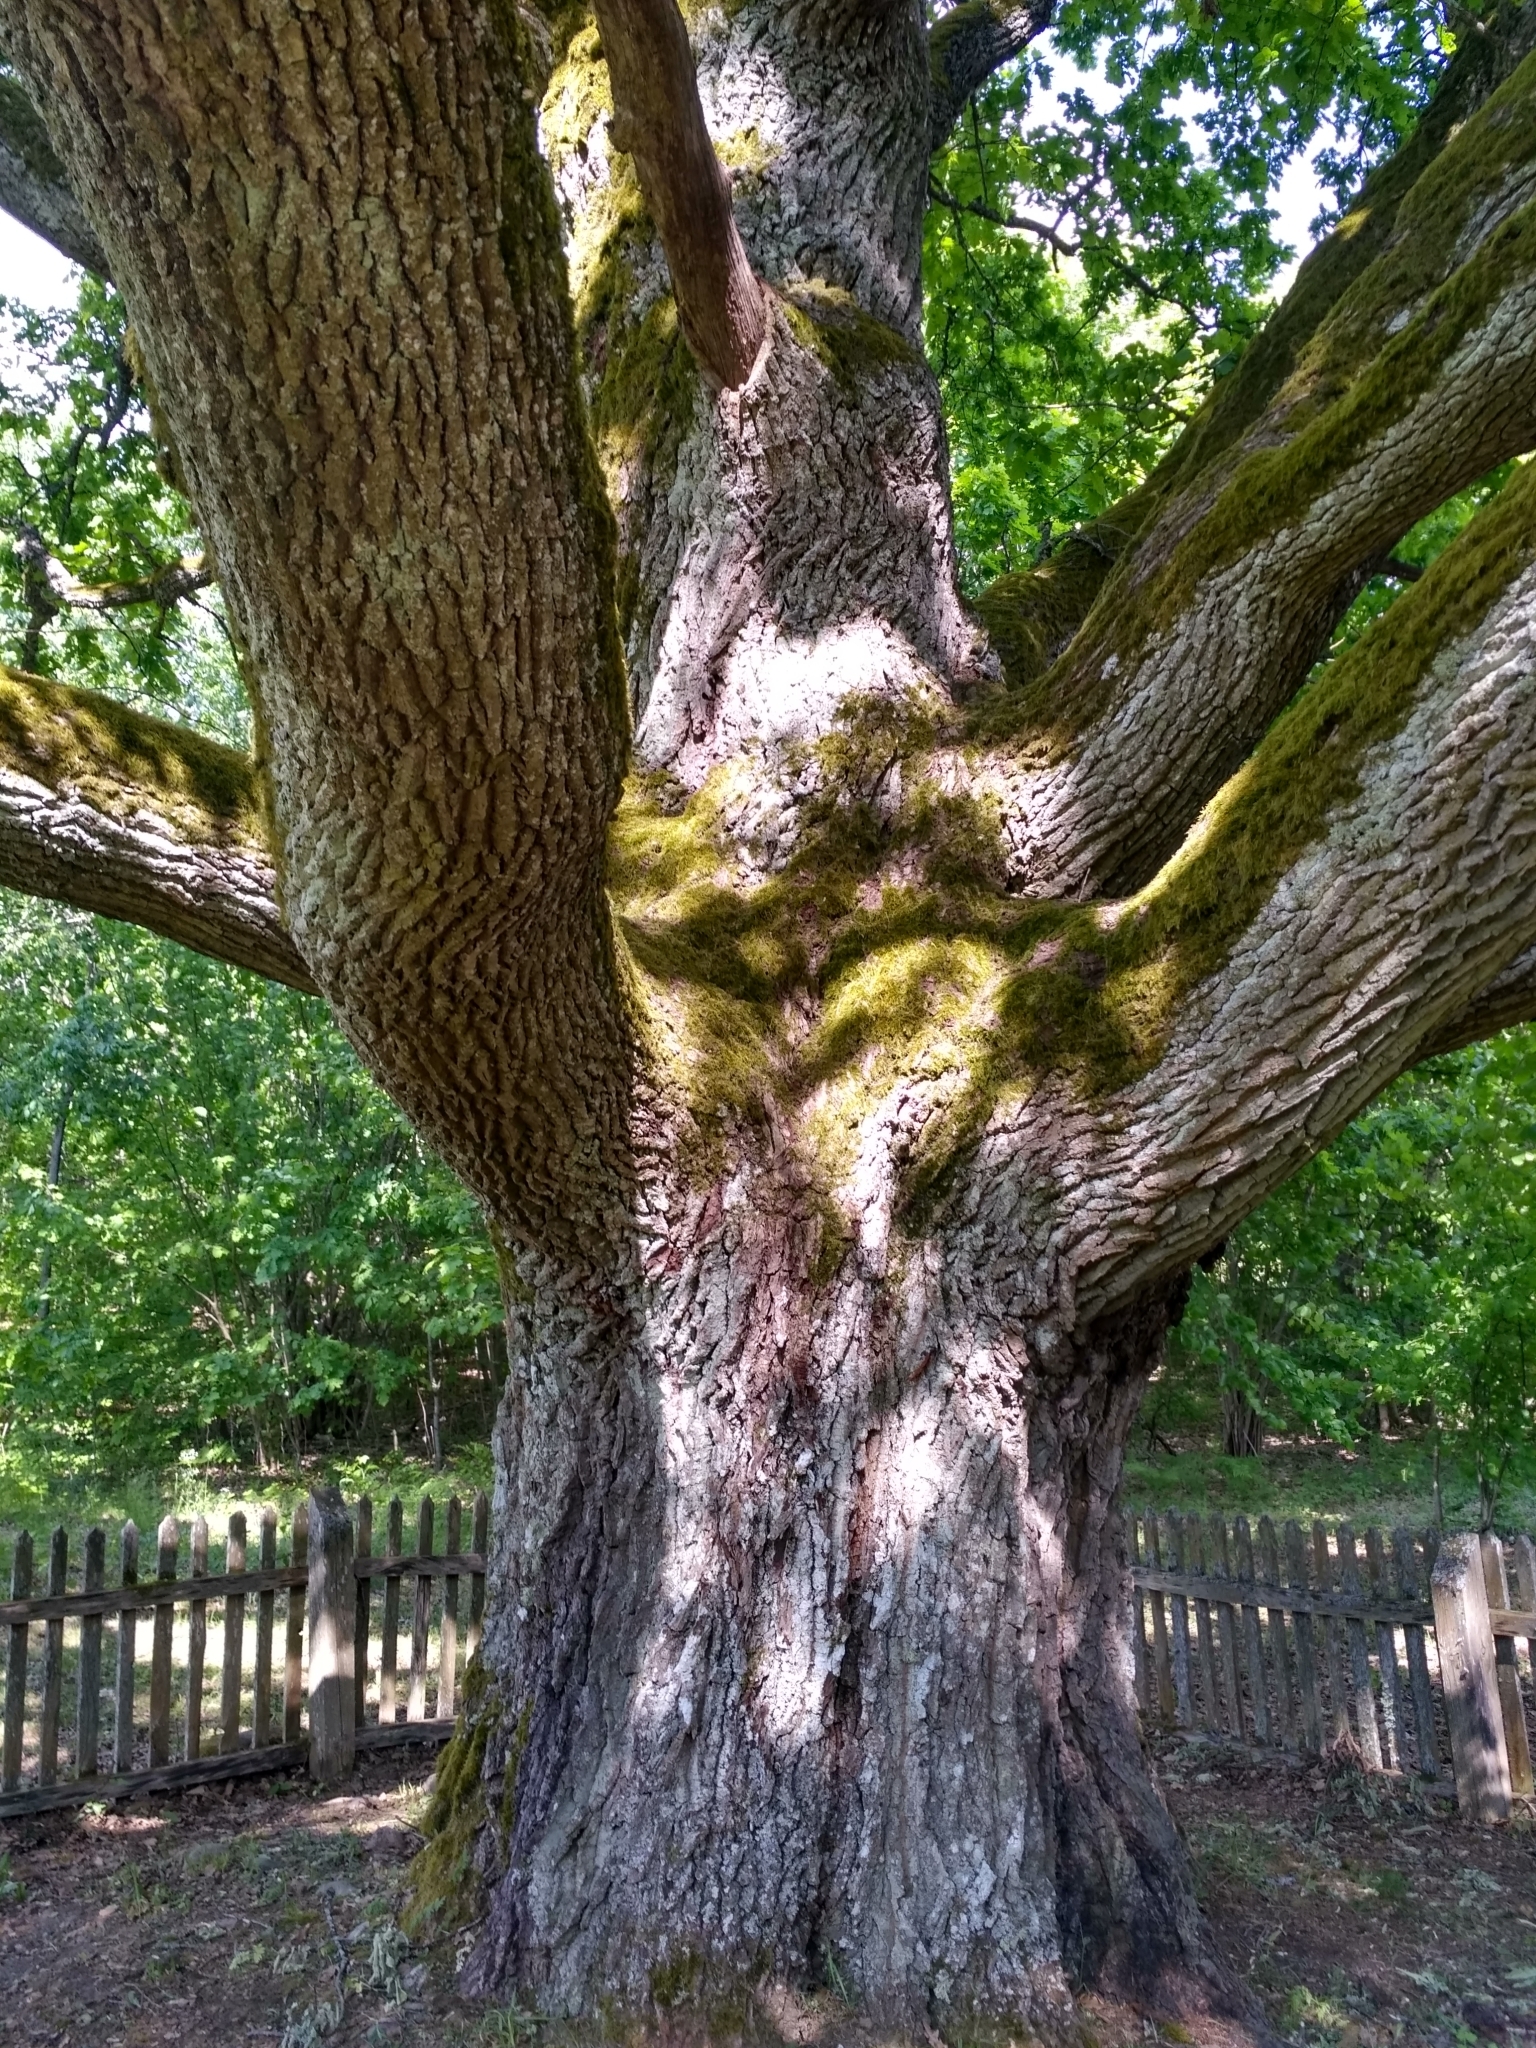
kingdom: Plantae
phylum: Tracheophyta
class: Magnoliopsida
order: Fagales
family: Fagaceae
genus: Quercus
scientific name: Quercus robur
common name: Pedunculate oak
